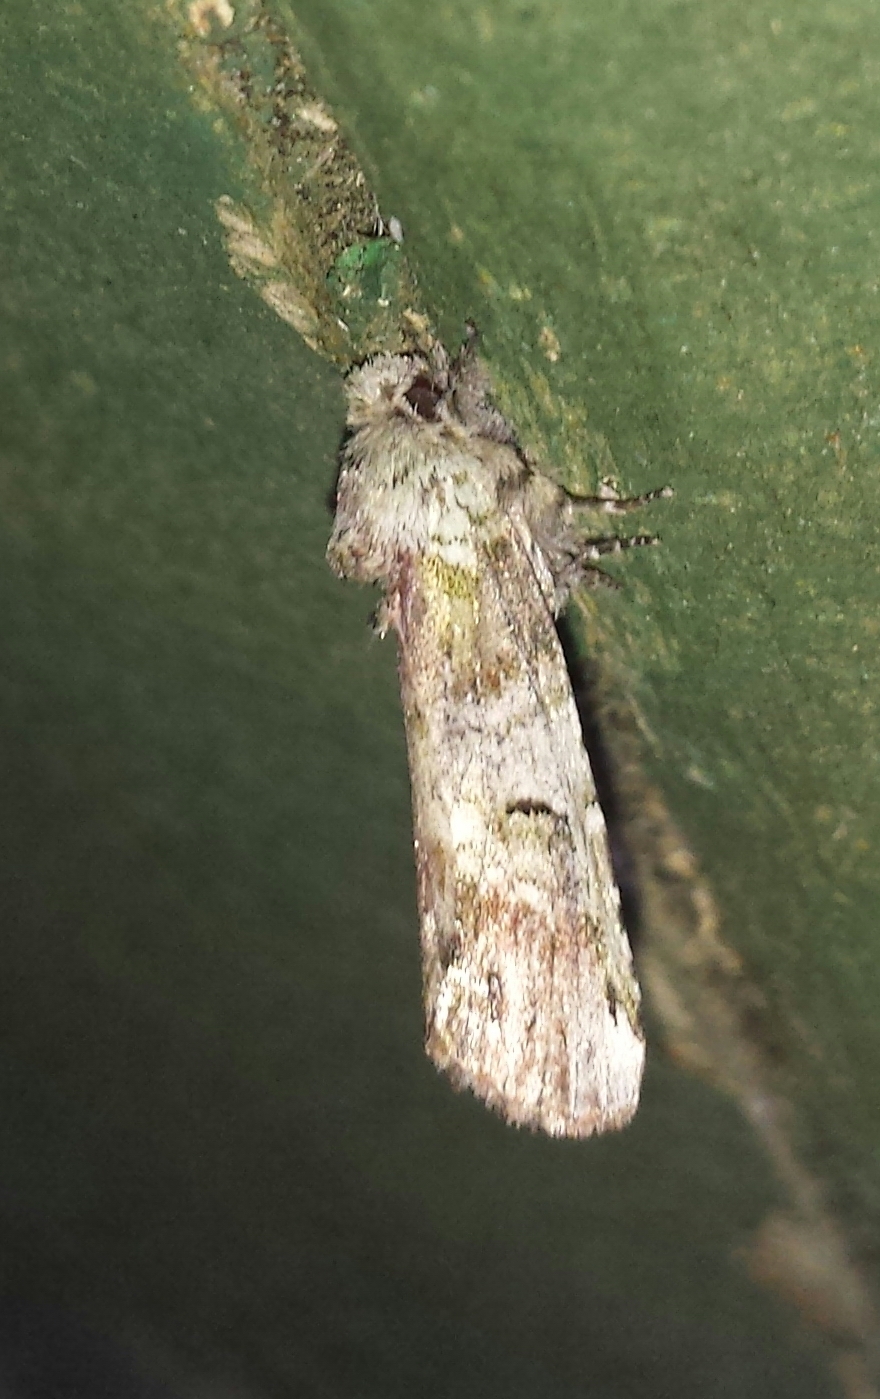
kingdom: Animalia
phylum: Arthropoda
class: Insecta
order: Lepidoptera
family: Notodontidae
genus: Schizura
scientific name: Schizura
